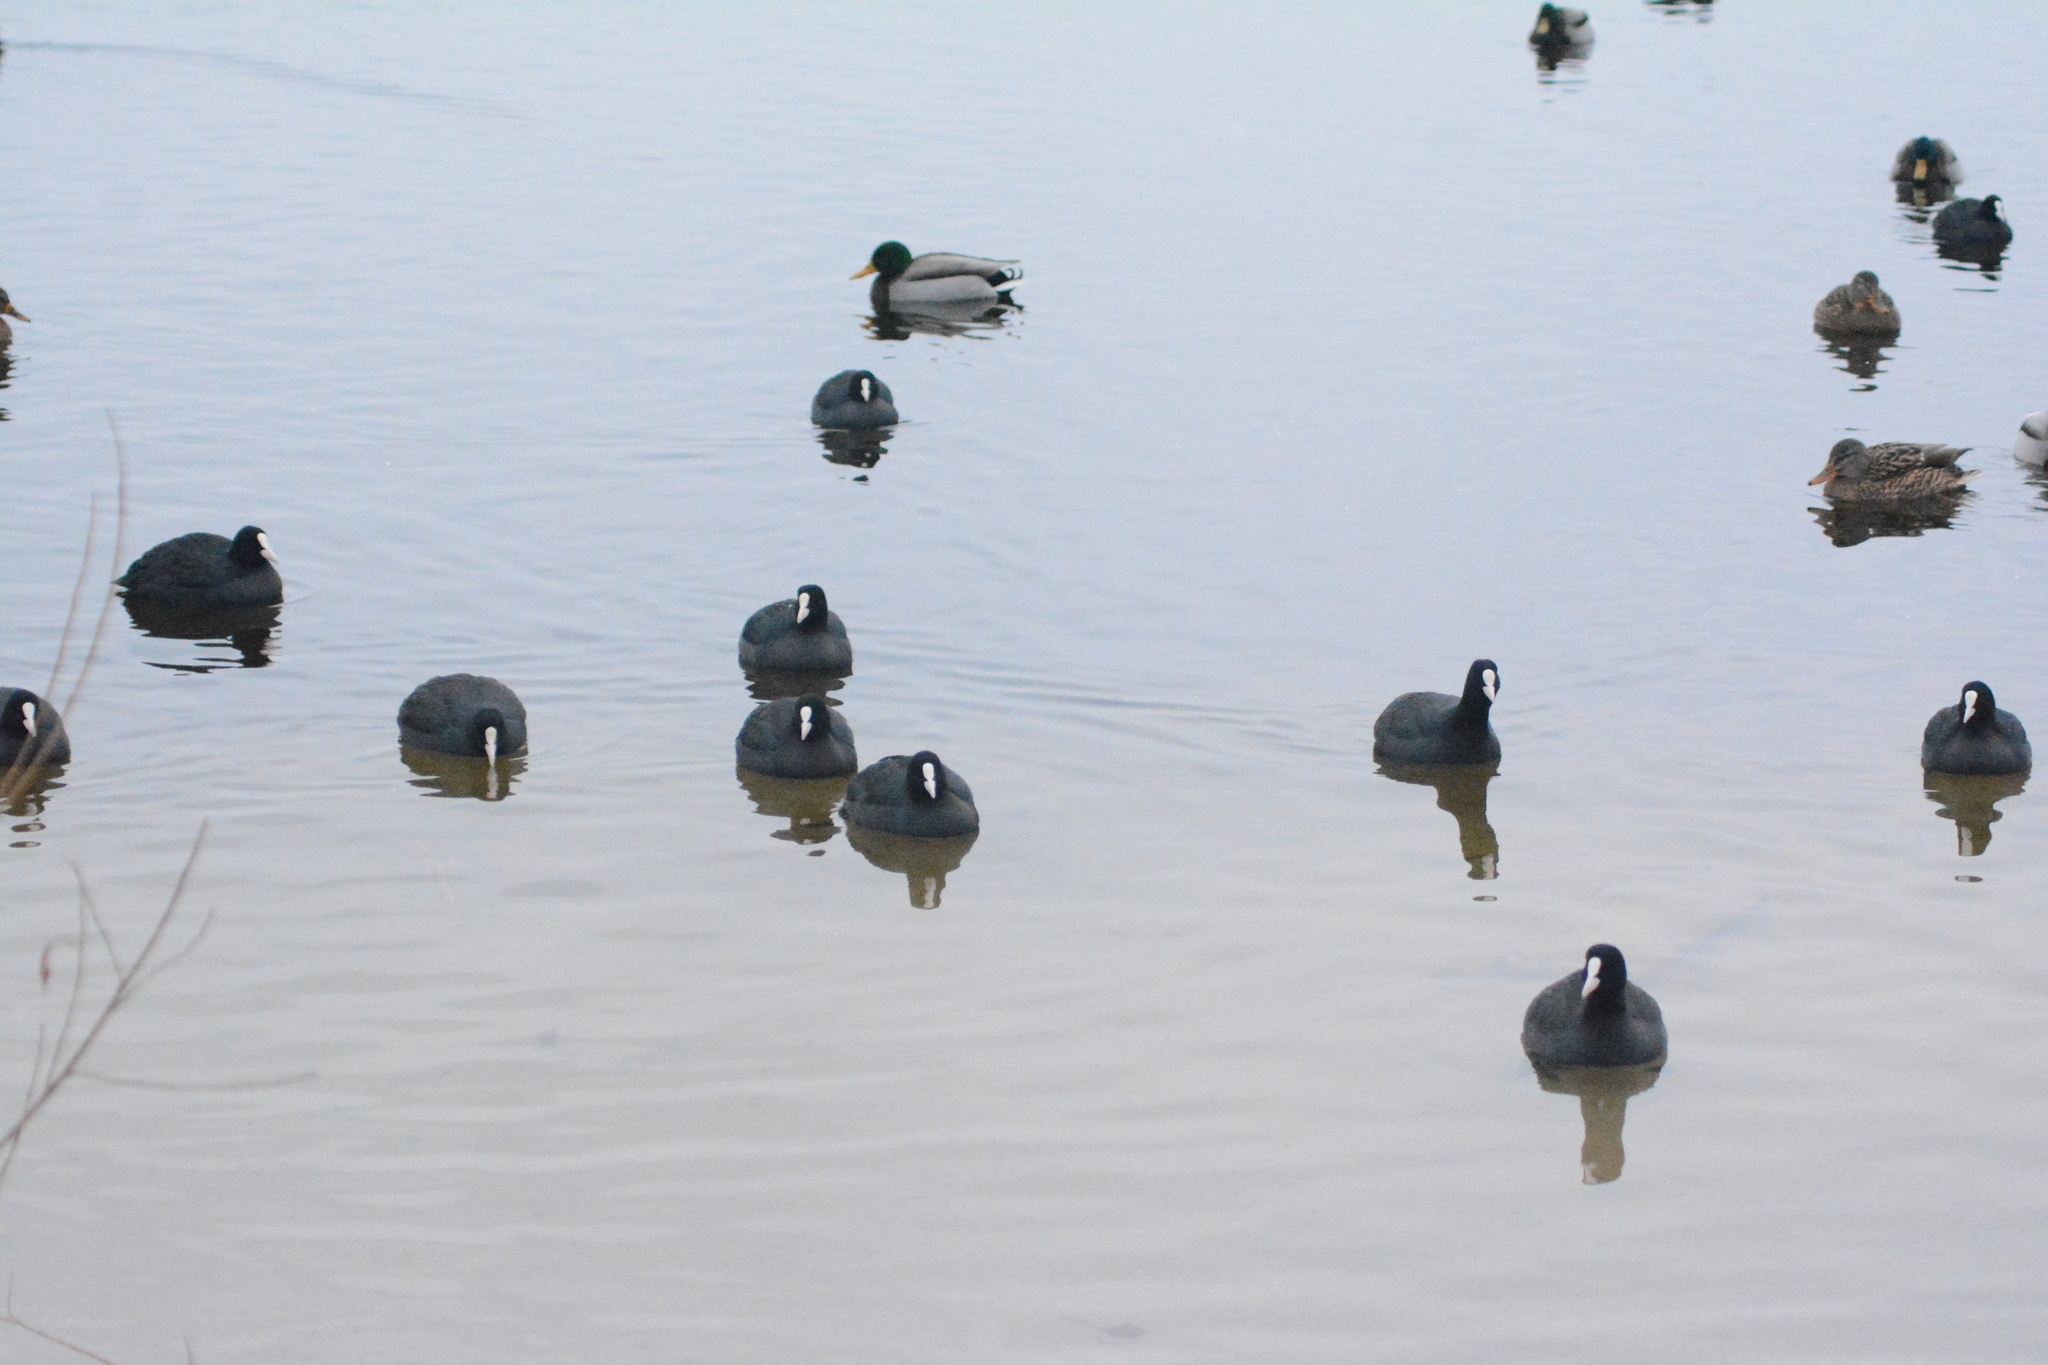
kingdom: Animalia
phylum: Chordata
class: Aves
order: Gruiformes
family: Rallidae
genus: Fulica
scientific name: Fulica atra
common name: Eurasian coot
